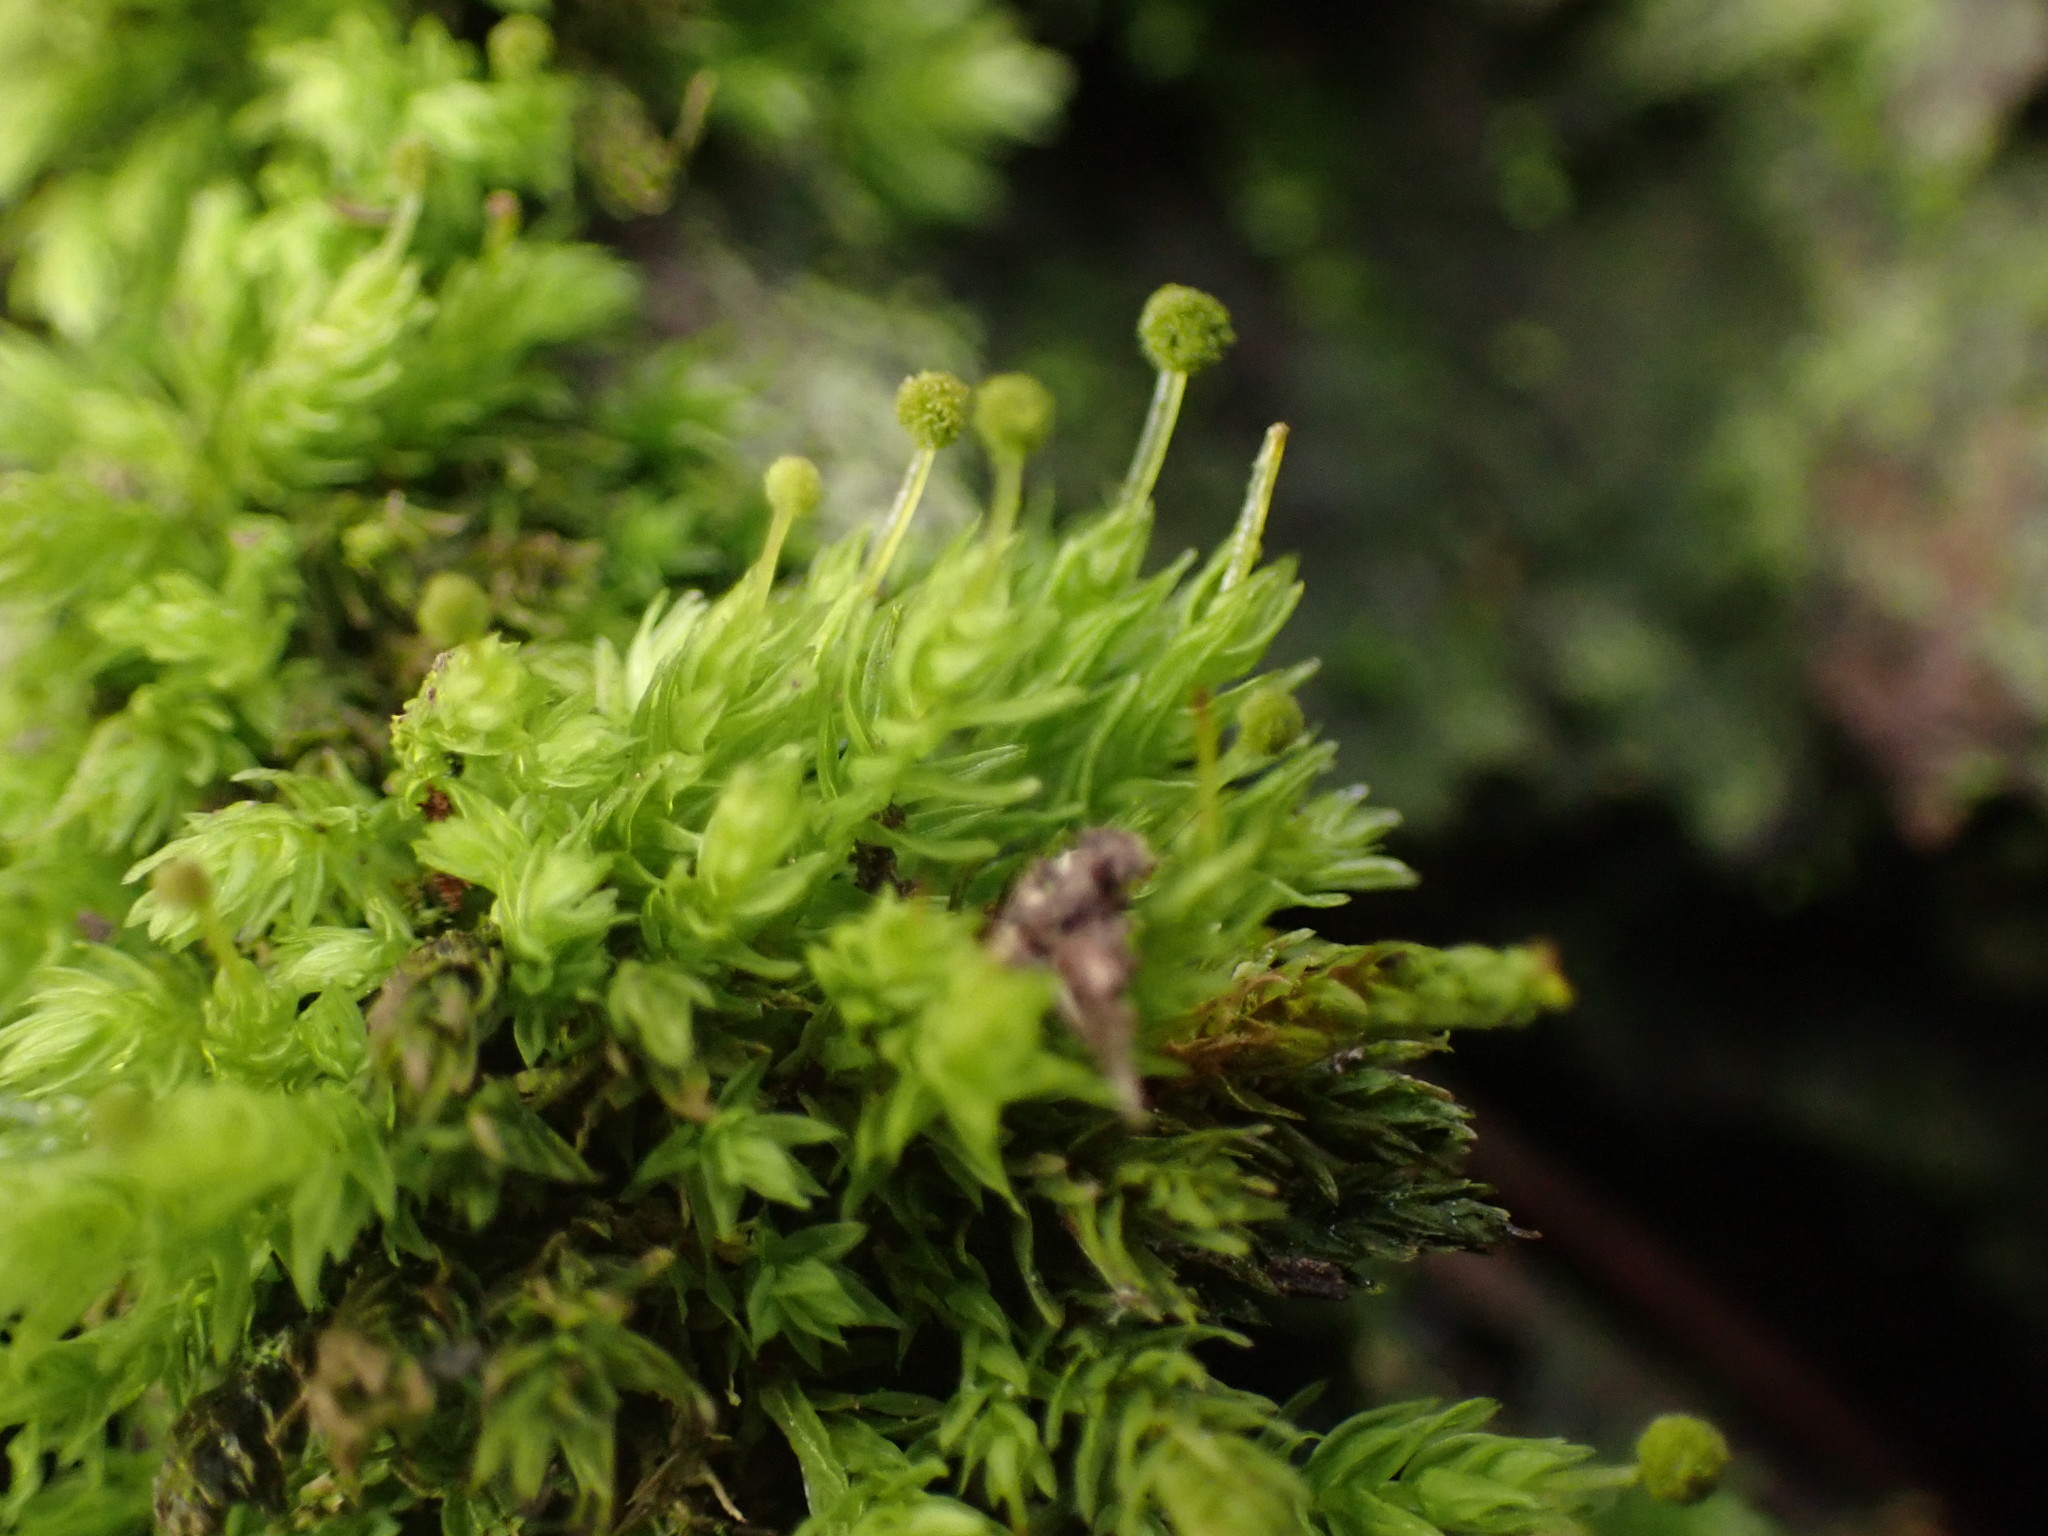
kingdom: Plantae
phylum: Bryophyta
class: Bryopsida
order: Aulacomniales
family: Aulacomniaceae
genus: Aulacomnium
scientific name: Aulacomnium androgynum
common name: Little groove moss
